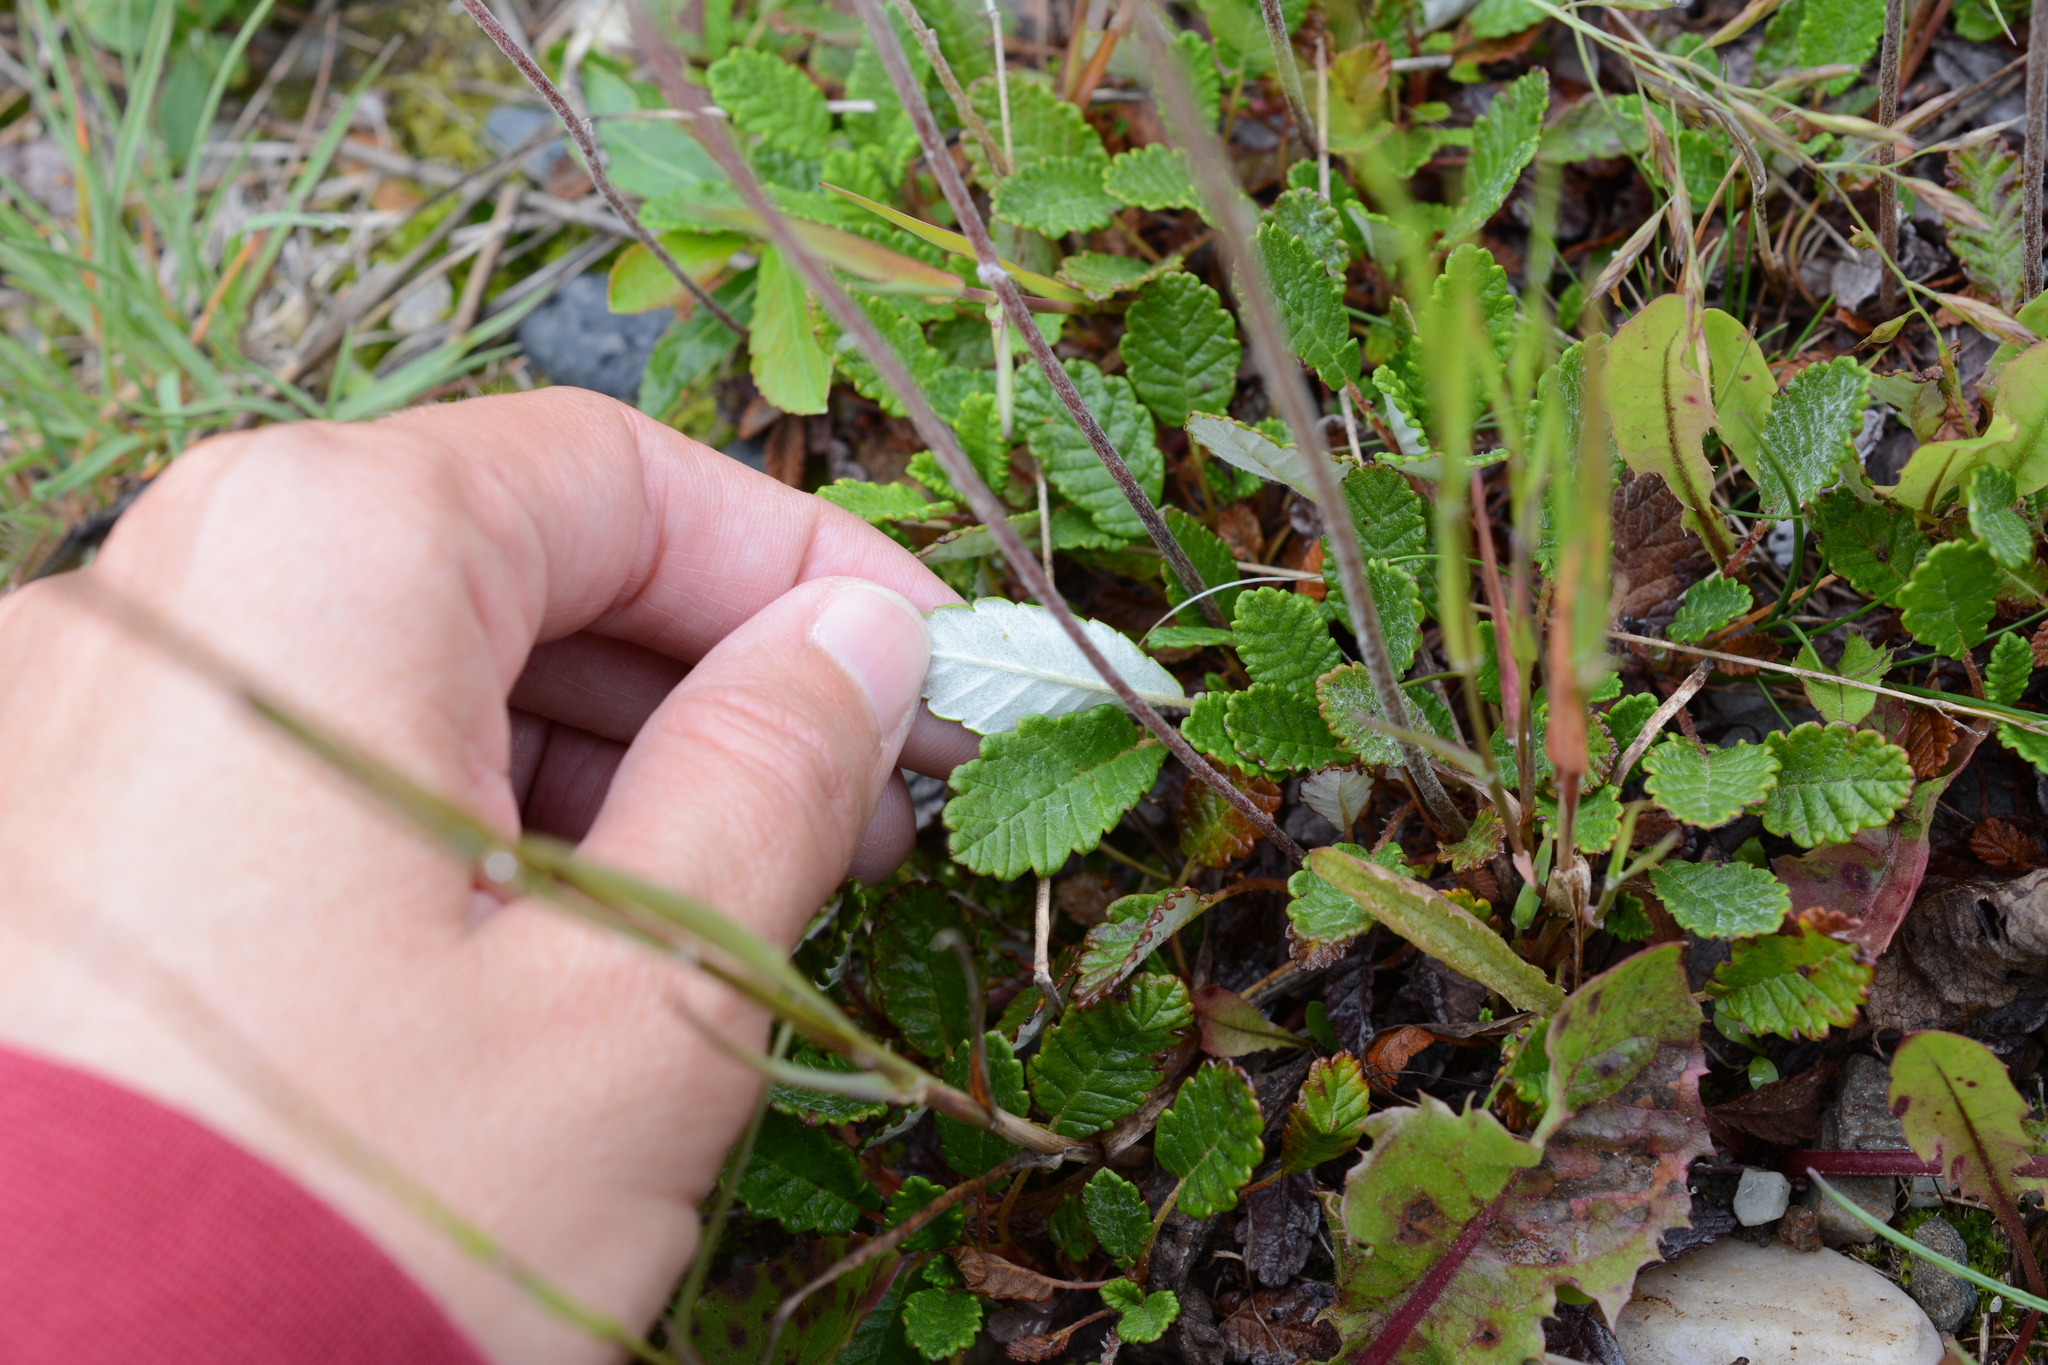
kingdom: Plantae
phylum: Tracheophyta
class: Magnoliopsida
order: Rosales
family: Rosaceae
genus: Dryas
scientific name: Dryas drummondii
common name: Drummond's dryad
